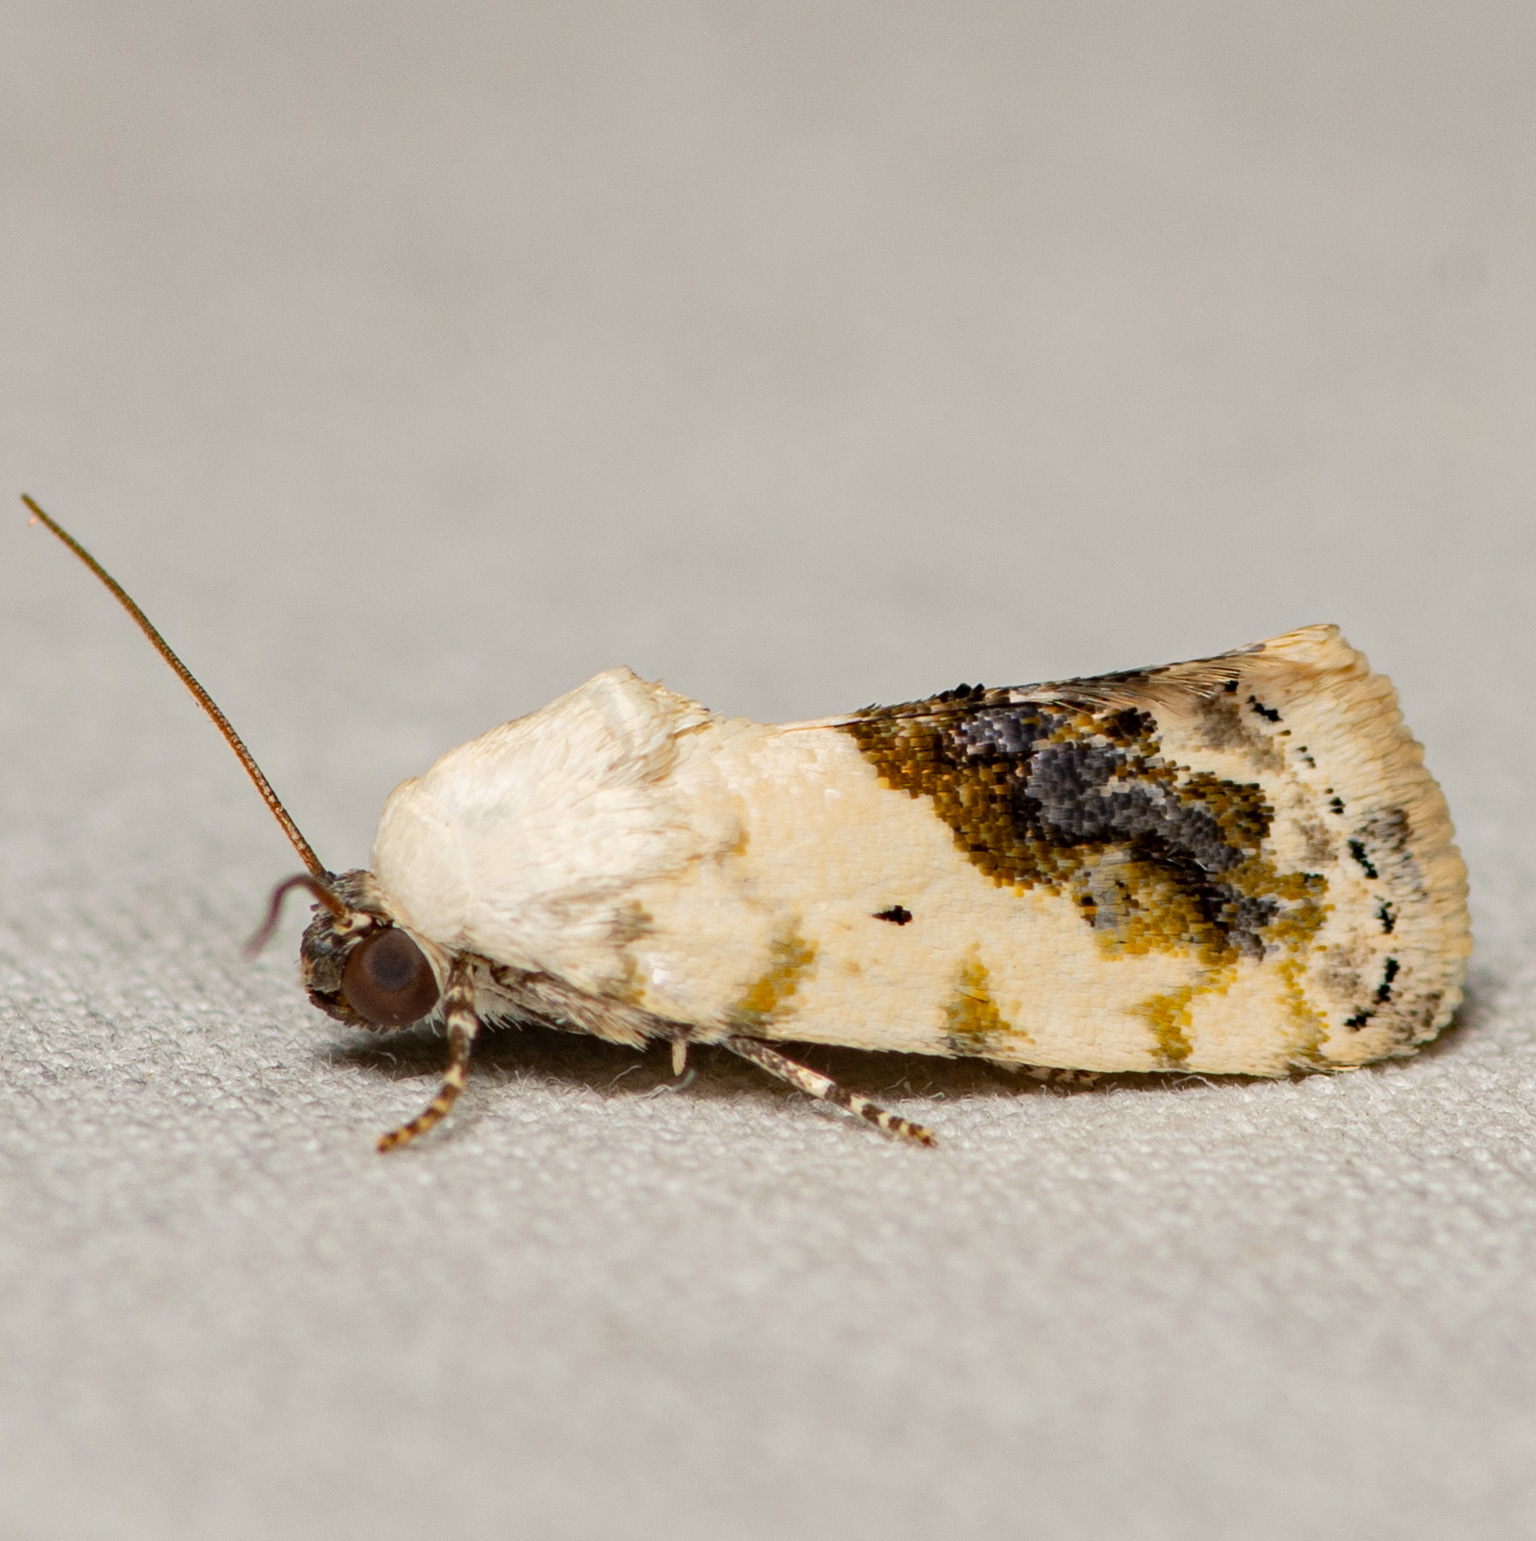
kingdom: Animalia
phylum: Arthropoda
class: Insecta
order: Lepidoptera
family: Noctuidae
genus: Acontia
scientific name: Acontia erastrioides
